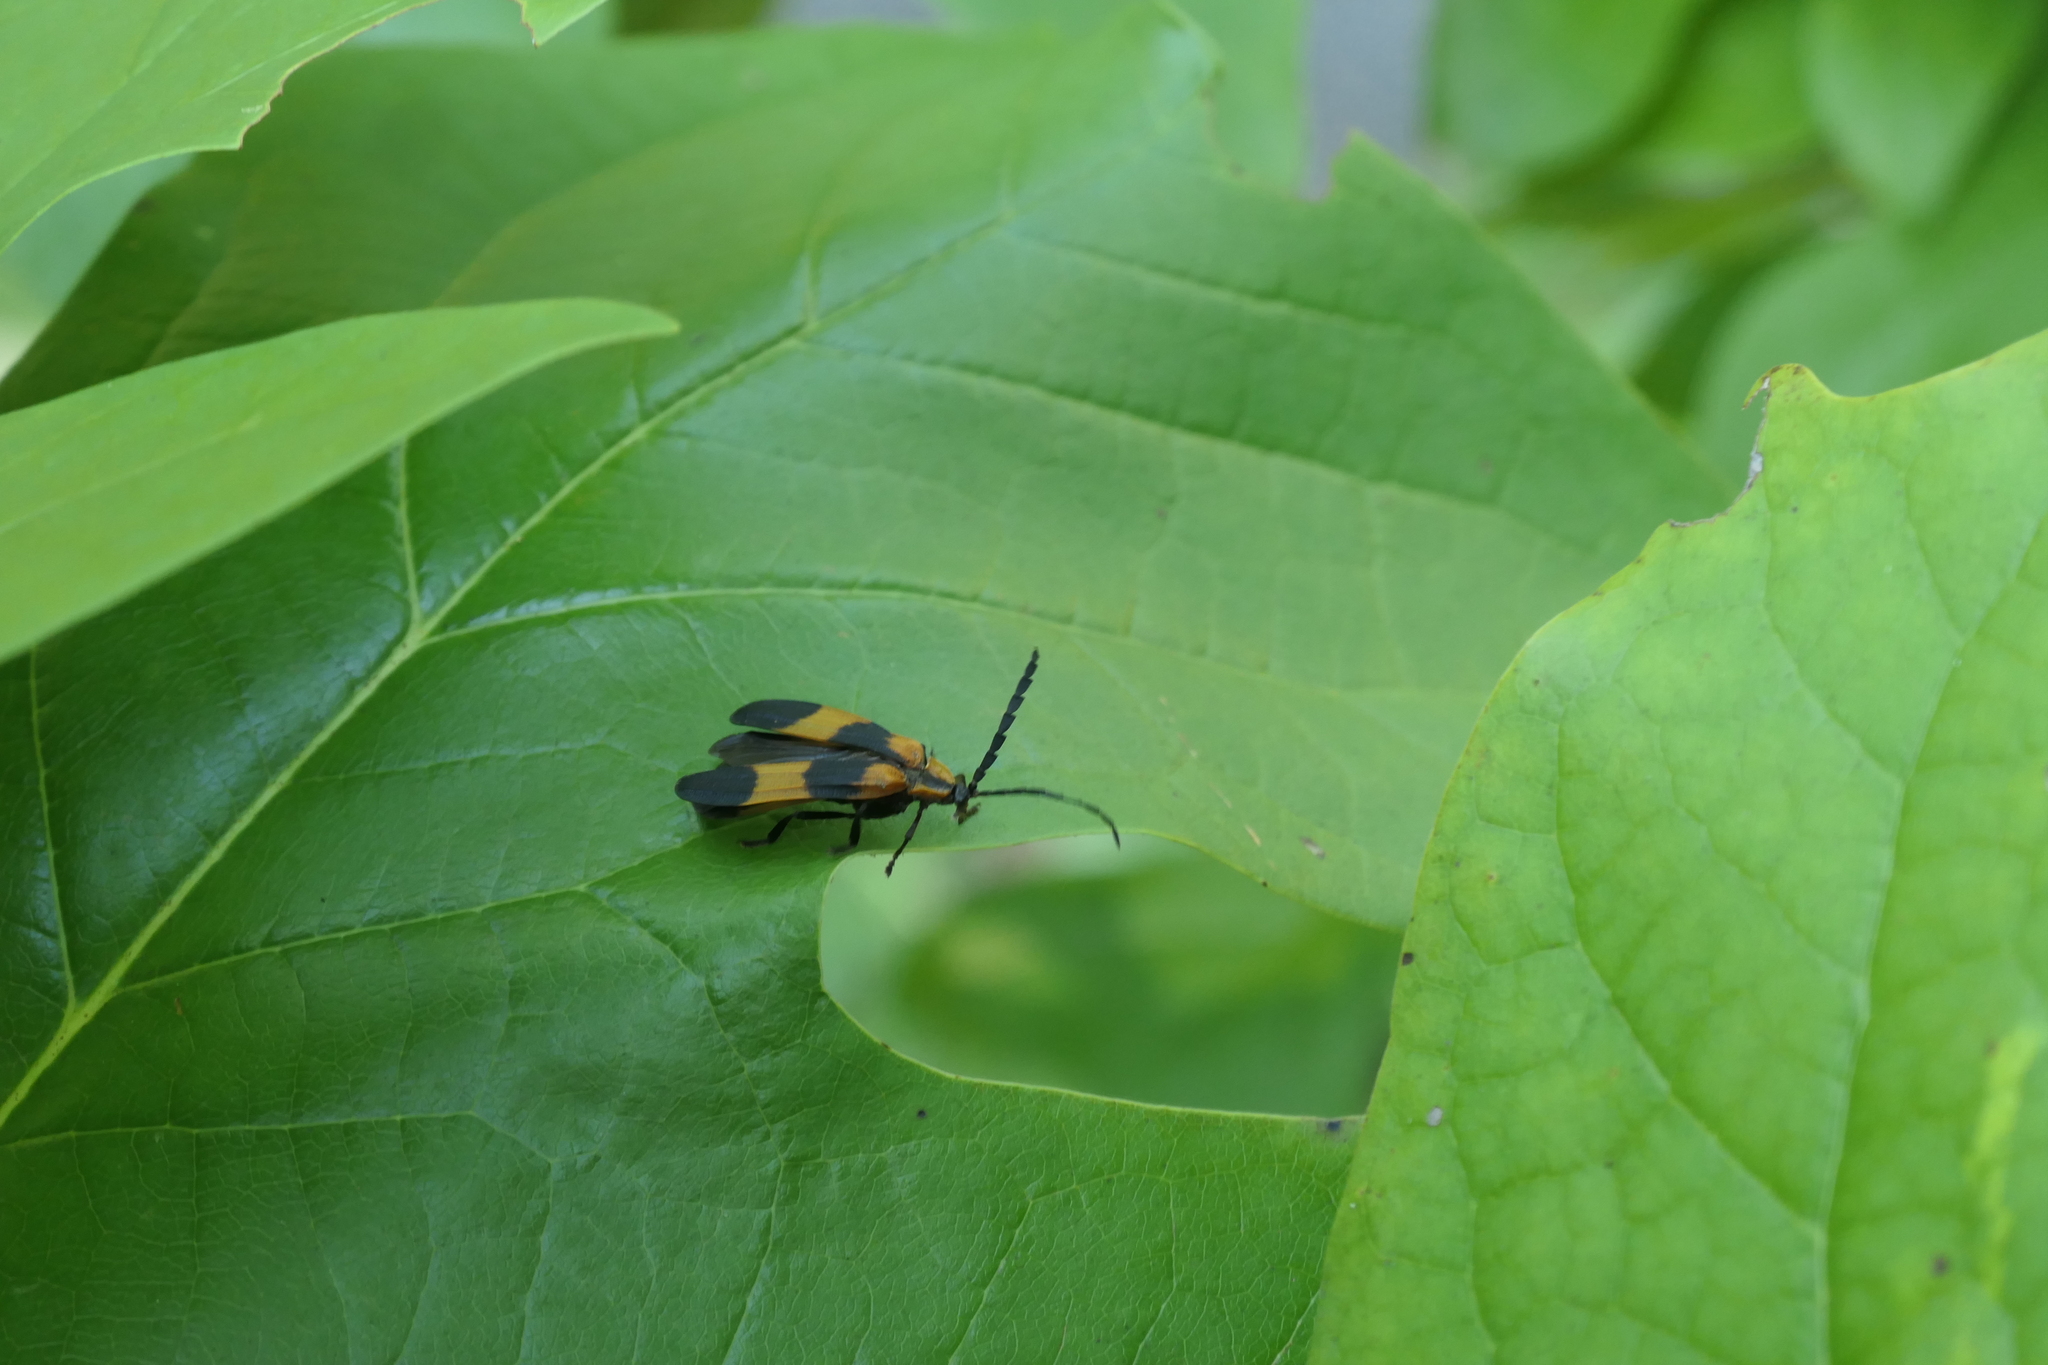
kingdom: Animalia
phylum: Arthropoda
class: Insecta
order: Coleoptera
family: Lycidae
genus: Calopteron
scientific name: Calopteron reticulatum
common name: Banded net-winged beetle
